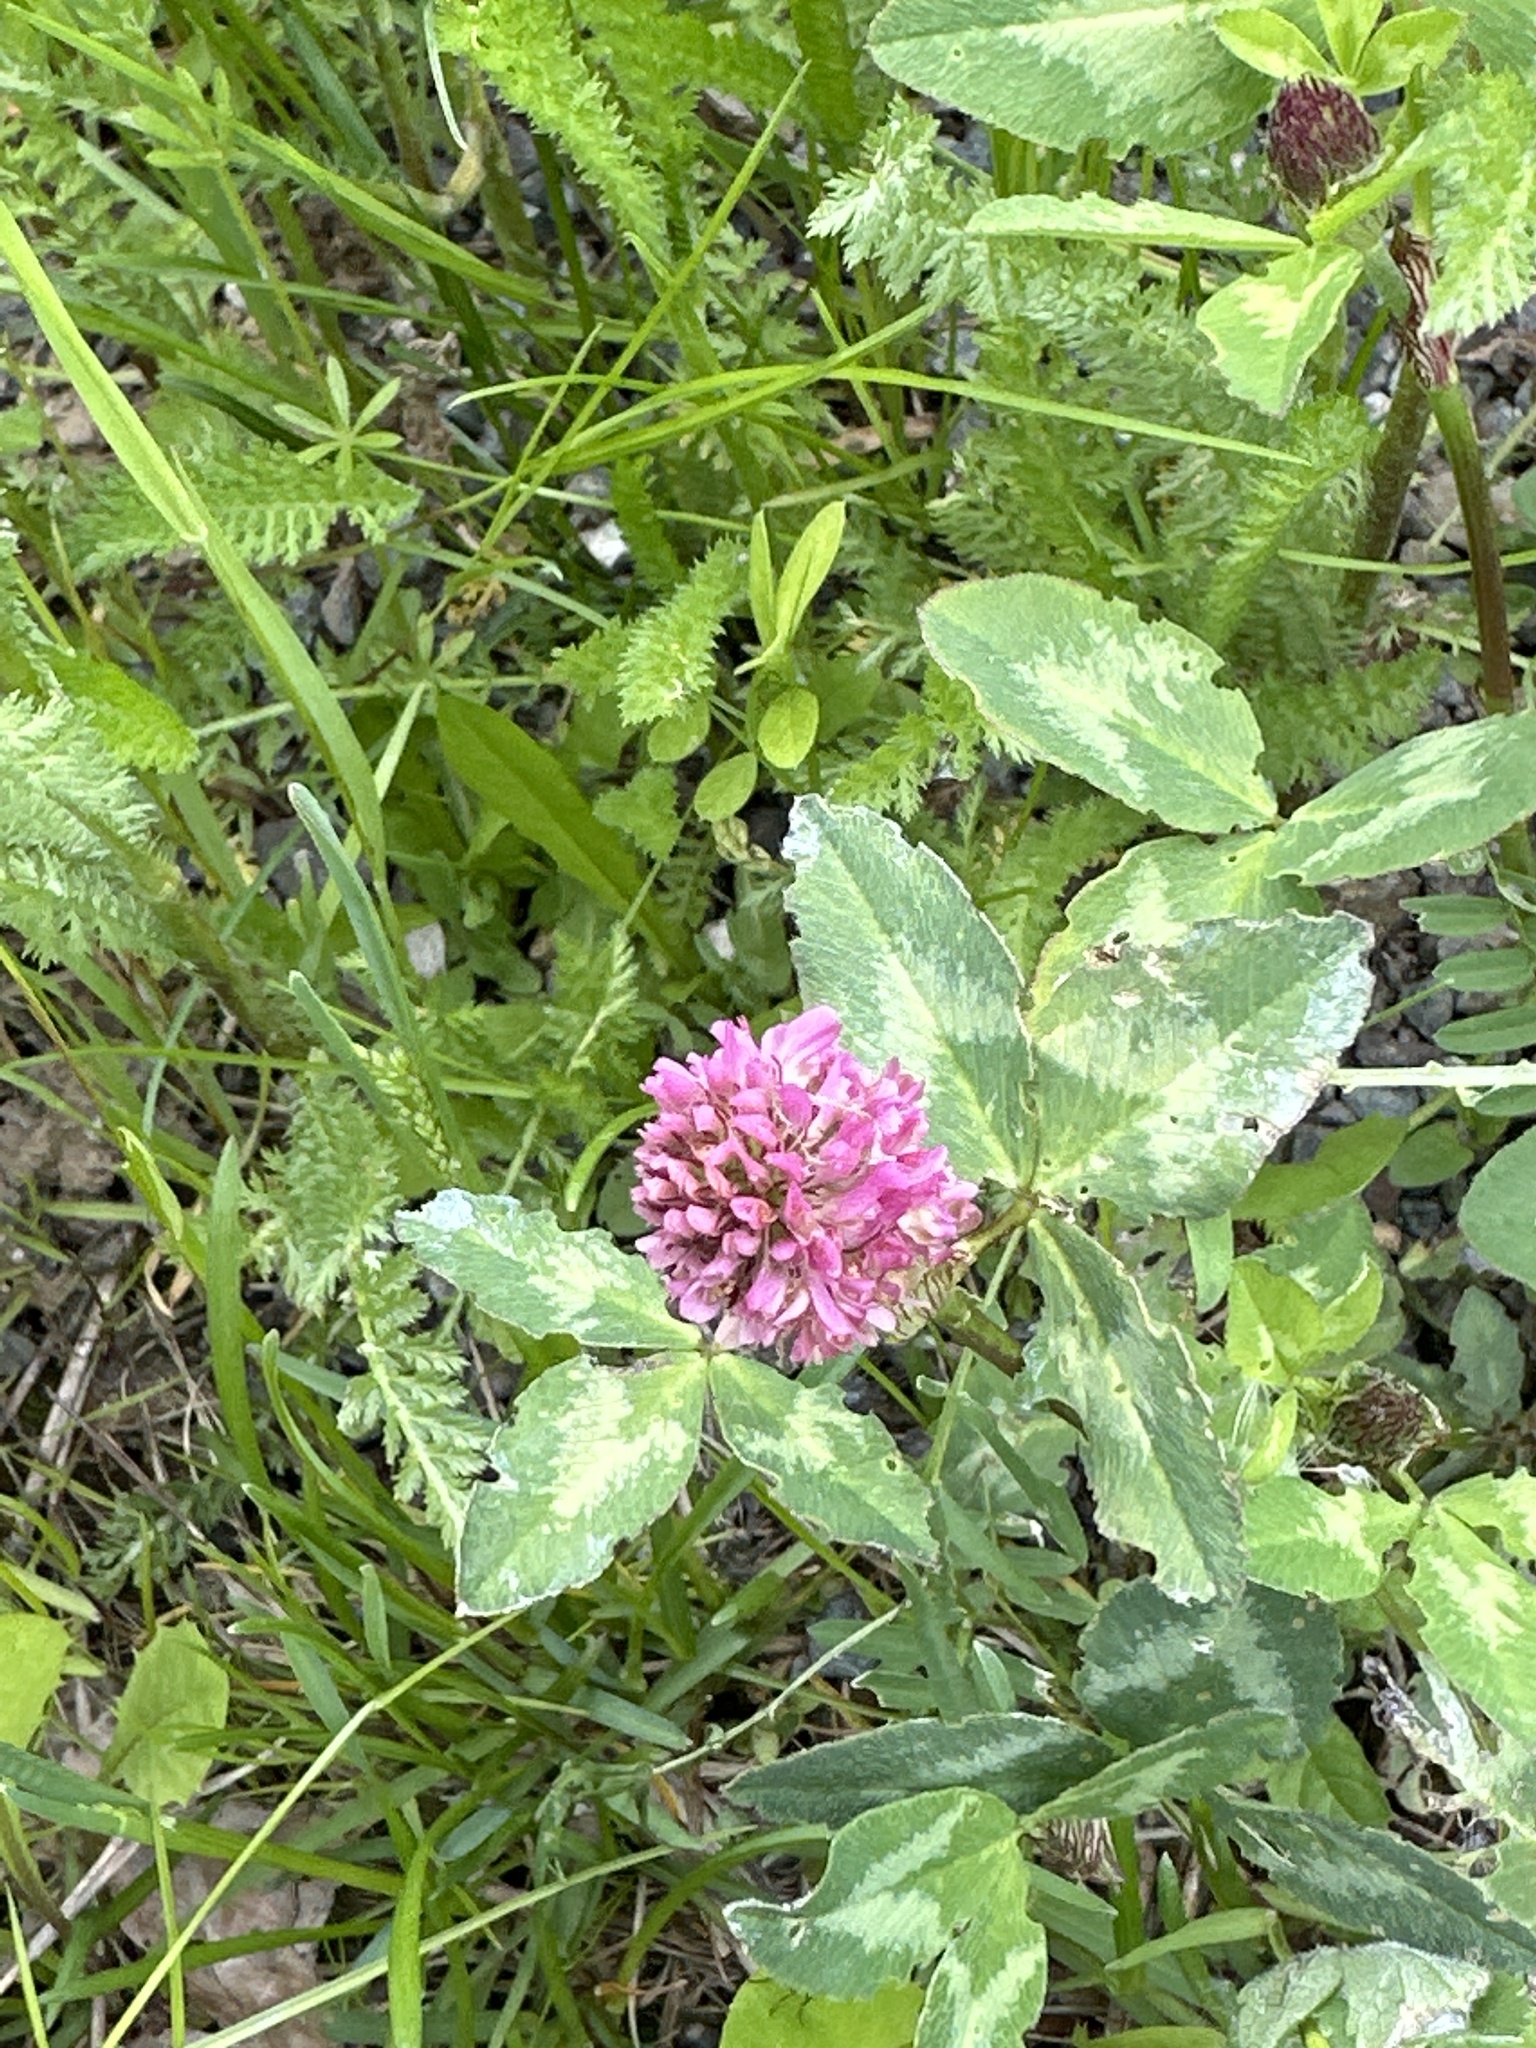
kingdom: Plantae
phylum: Tracheophyta
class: Magnoliopsida
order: Fabales
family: Fabaceae
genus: Trifolium
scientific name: Trifolium pratense
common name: Red clover
